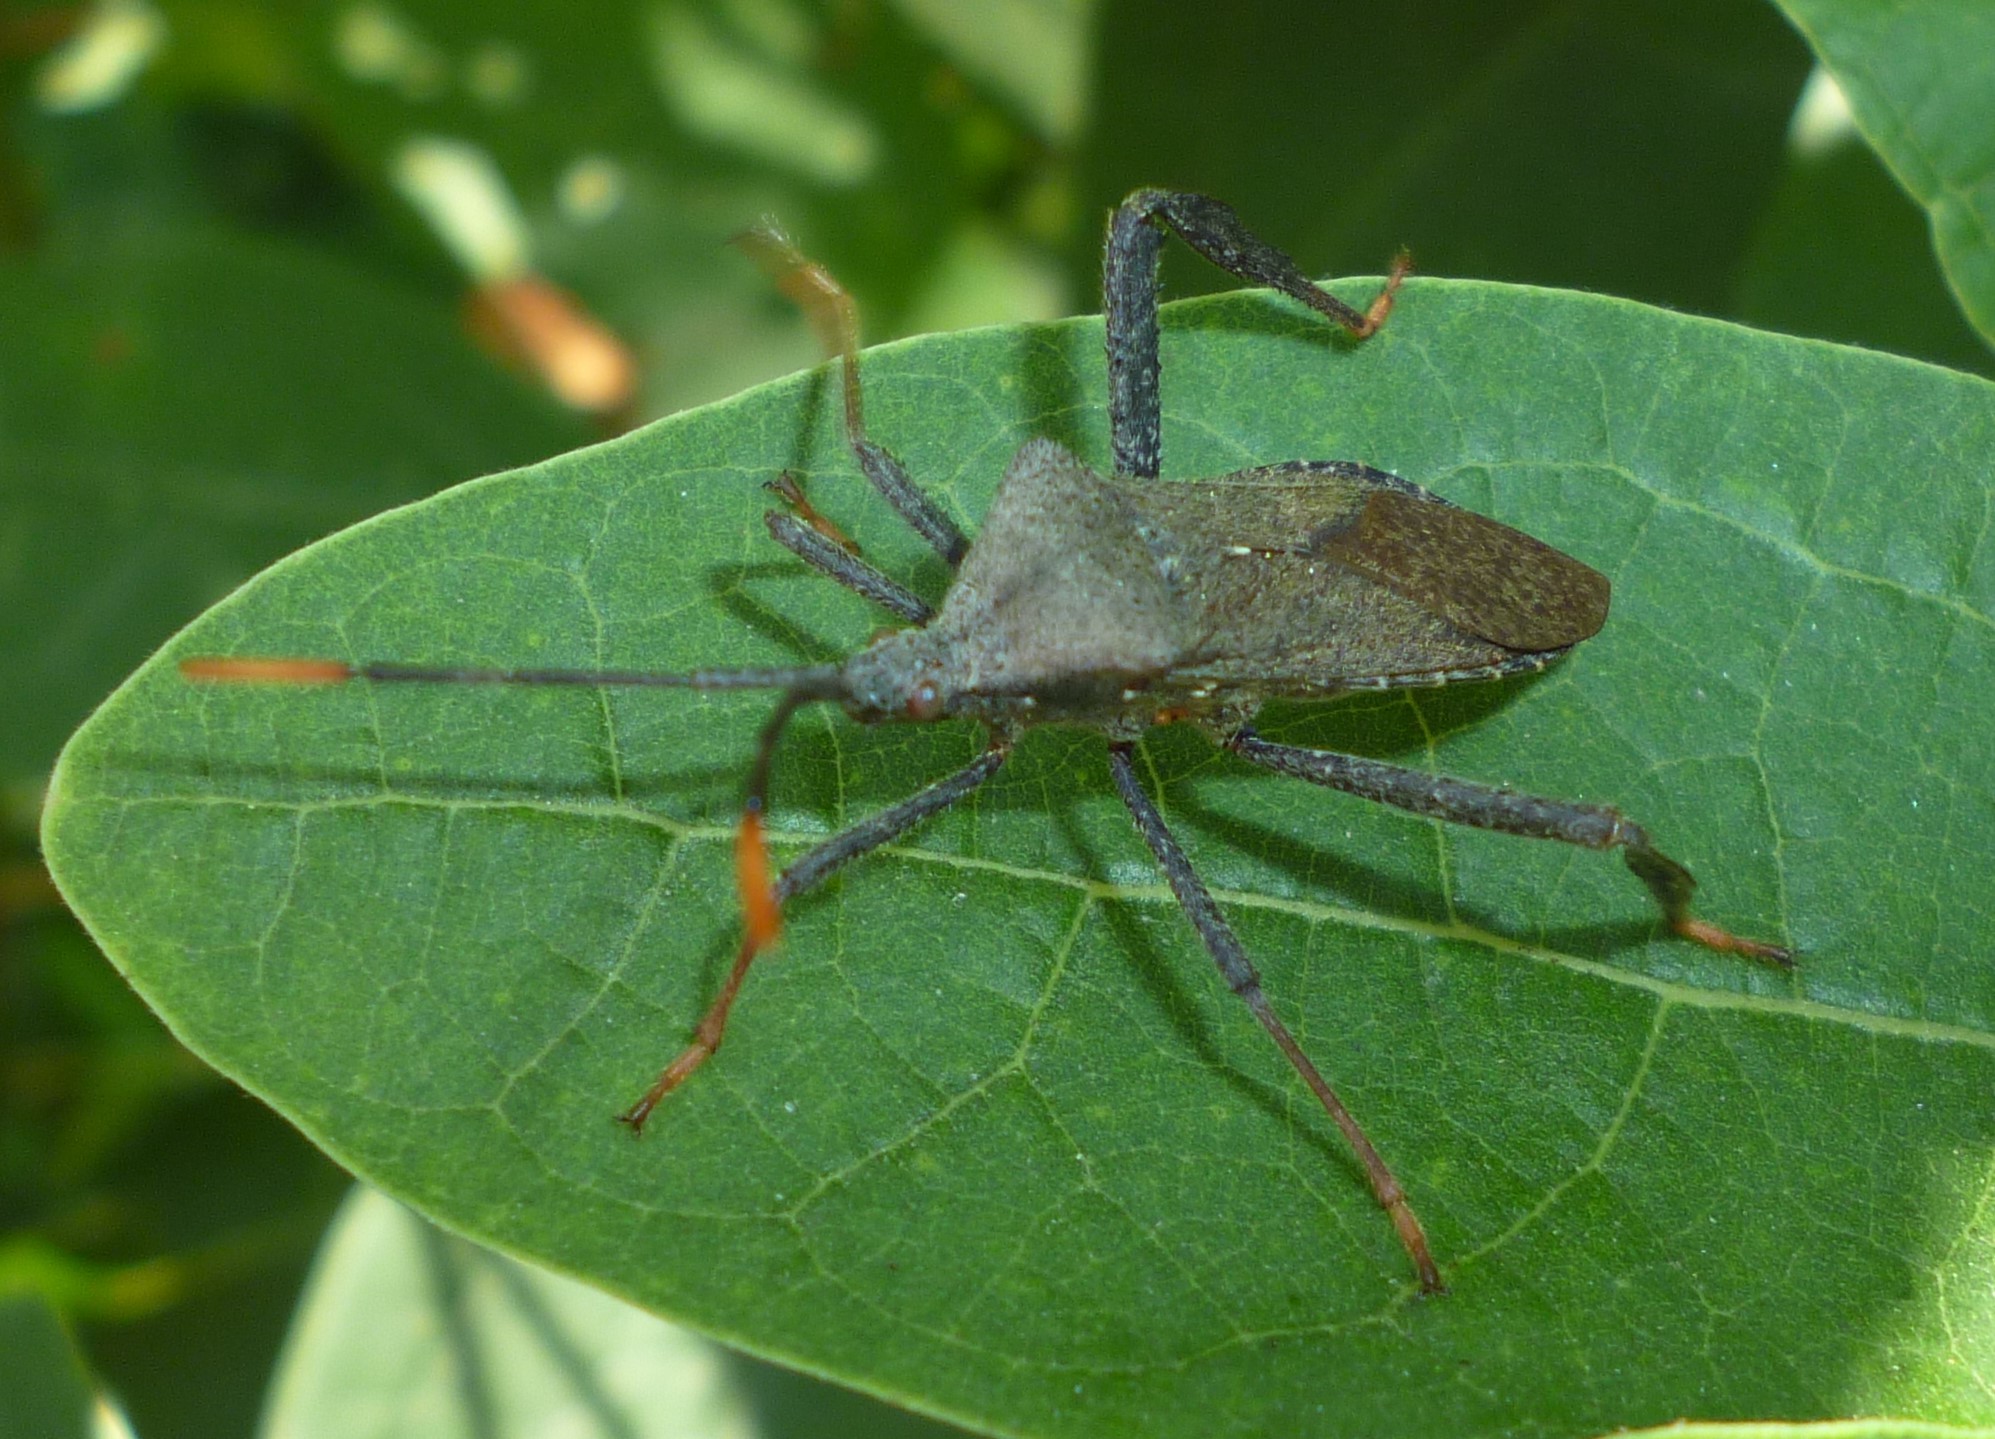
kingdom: Animalia
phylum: Arthropoda
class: Insecta
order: Hemiptera
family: Coreidae
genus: Acanthocephala
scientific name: Acanthocephala terminalis
